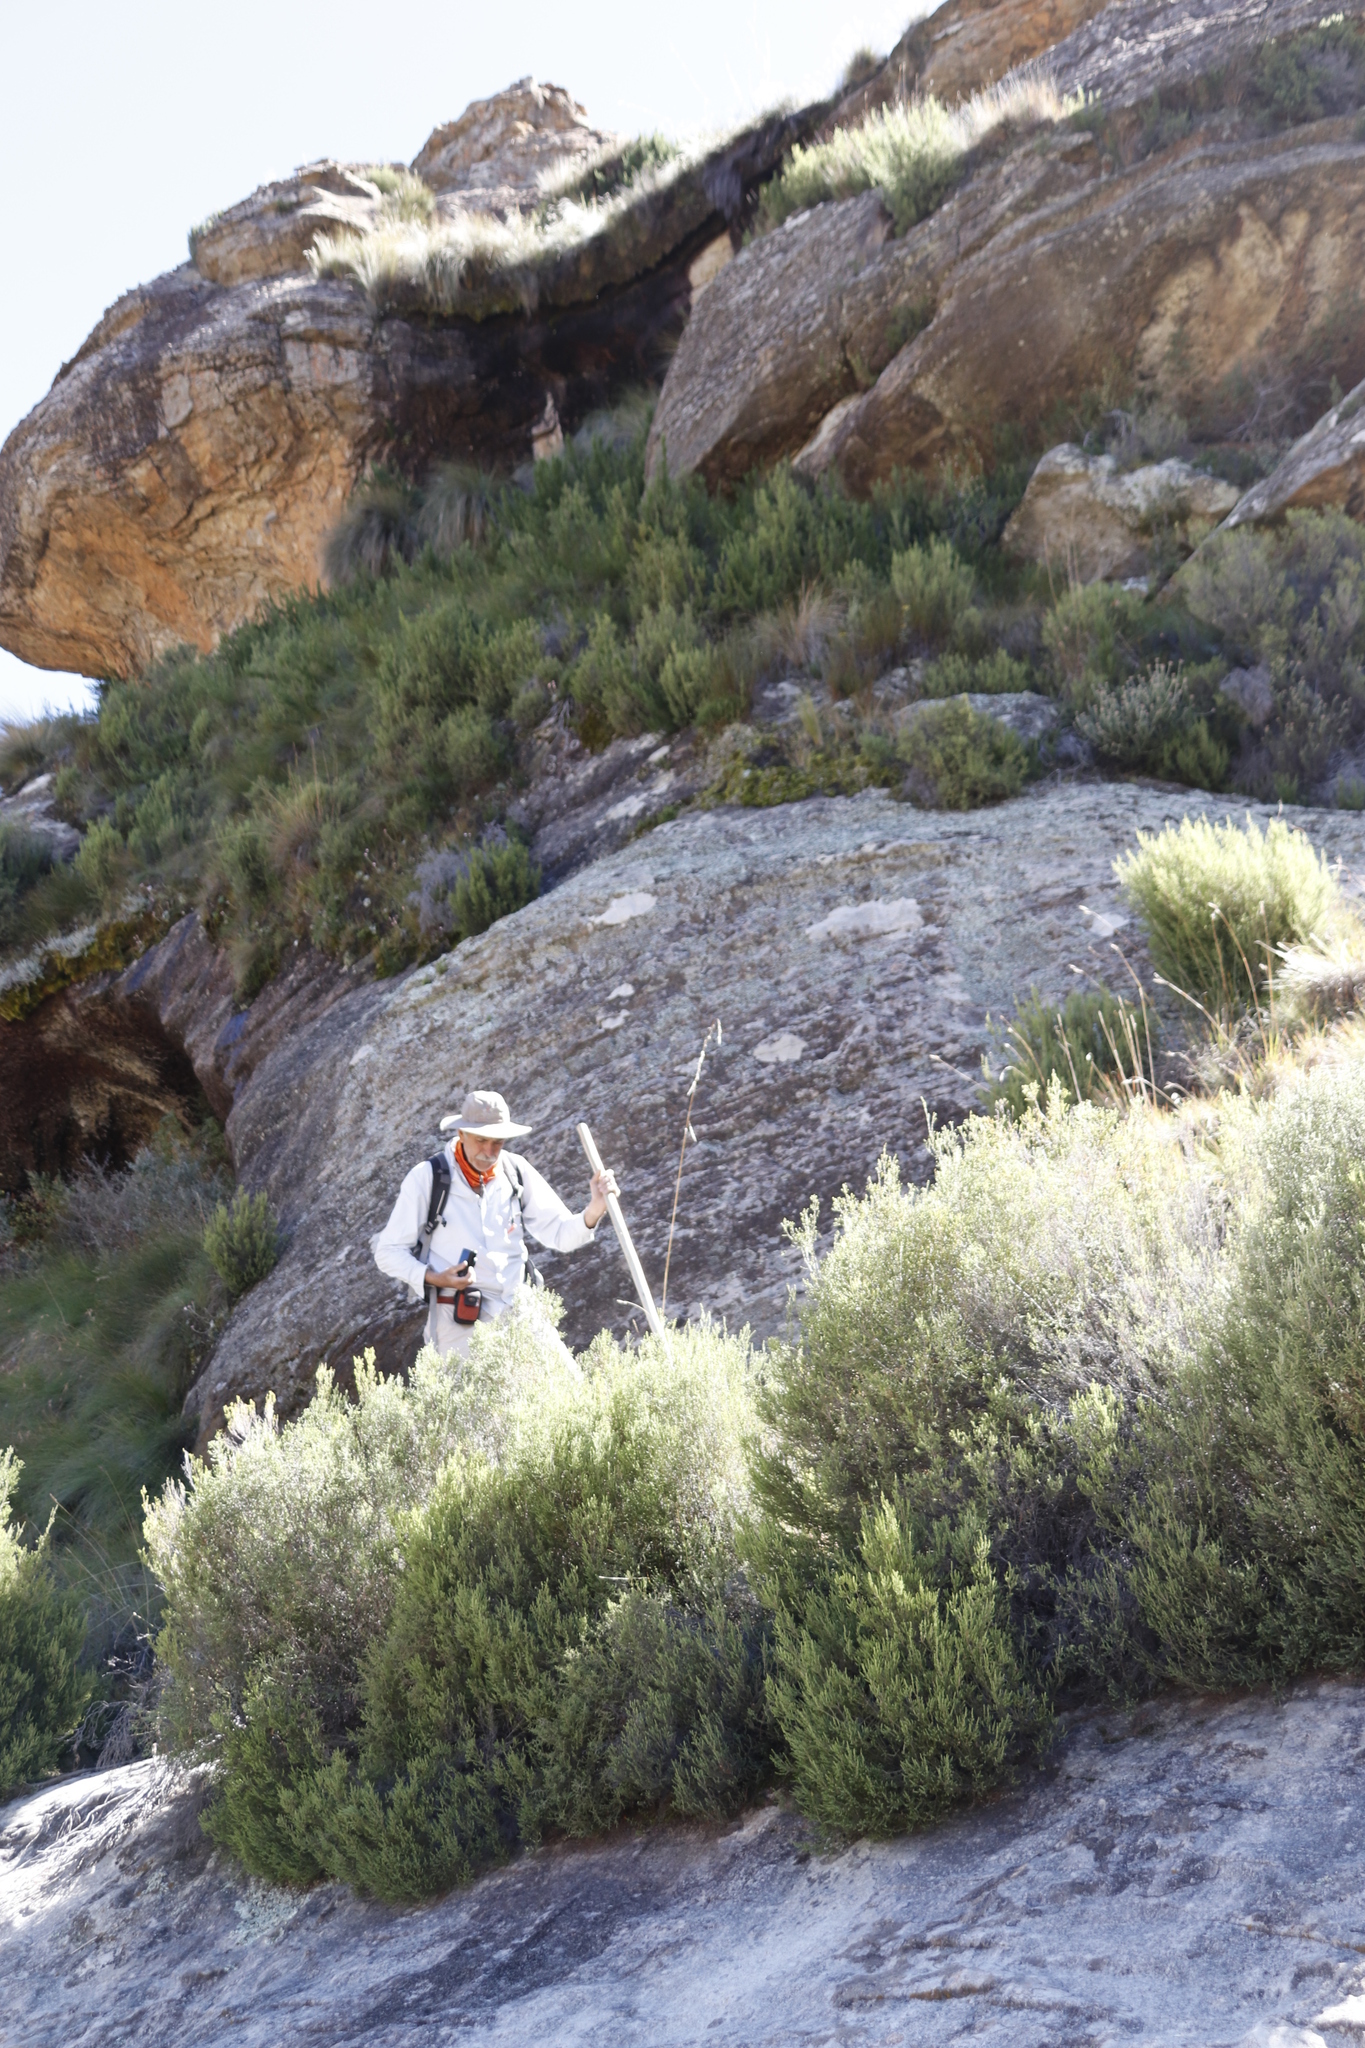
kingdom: Plantae
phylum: Tracheophyta
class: Liliopsida
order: Asparagales
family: Iridaceae
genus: Dierama
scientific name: Dierama robustum
